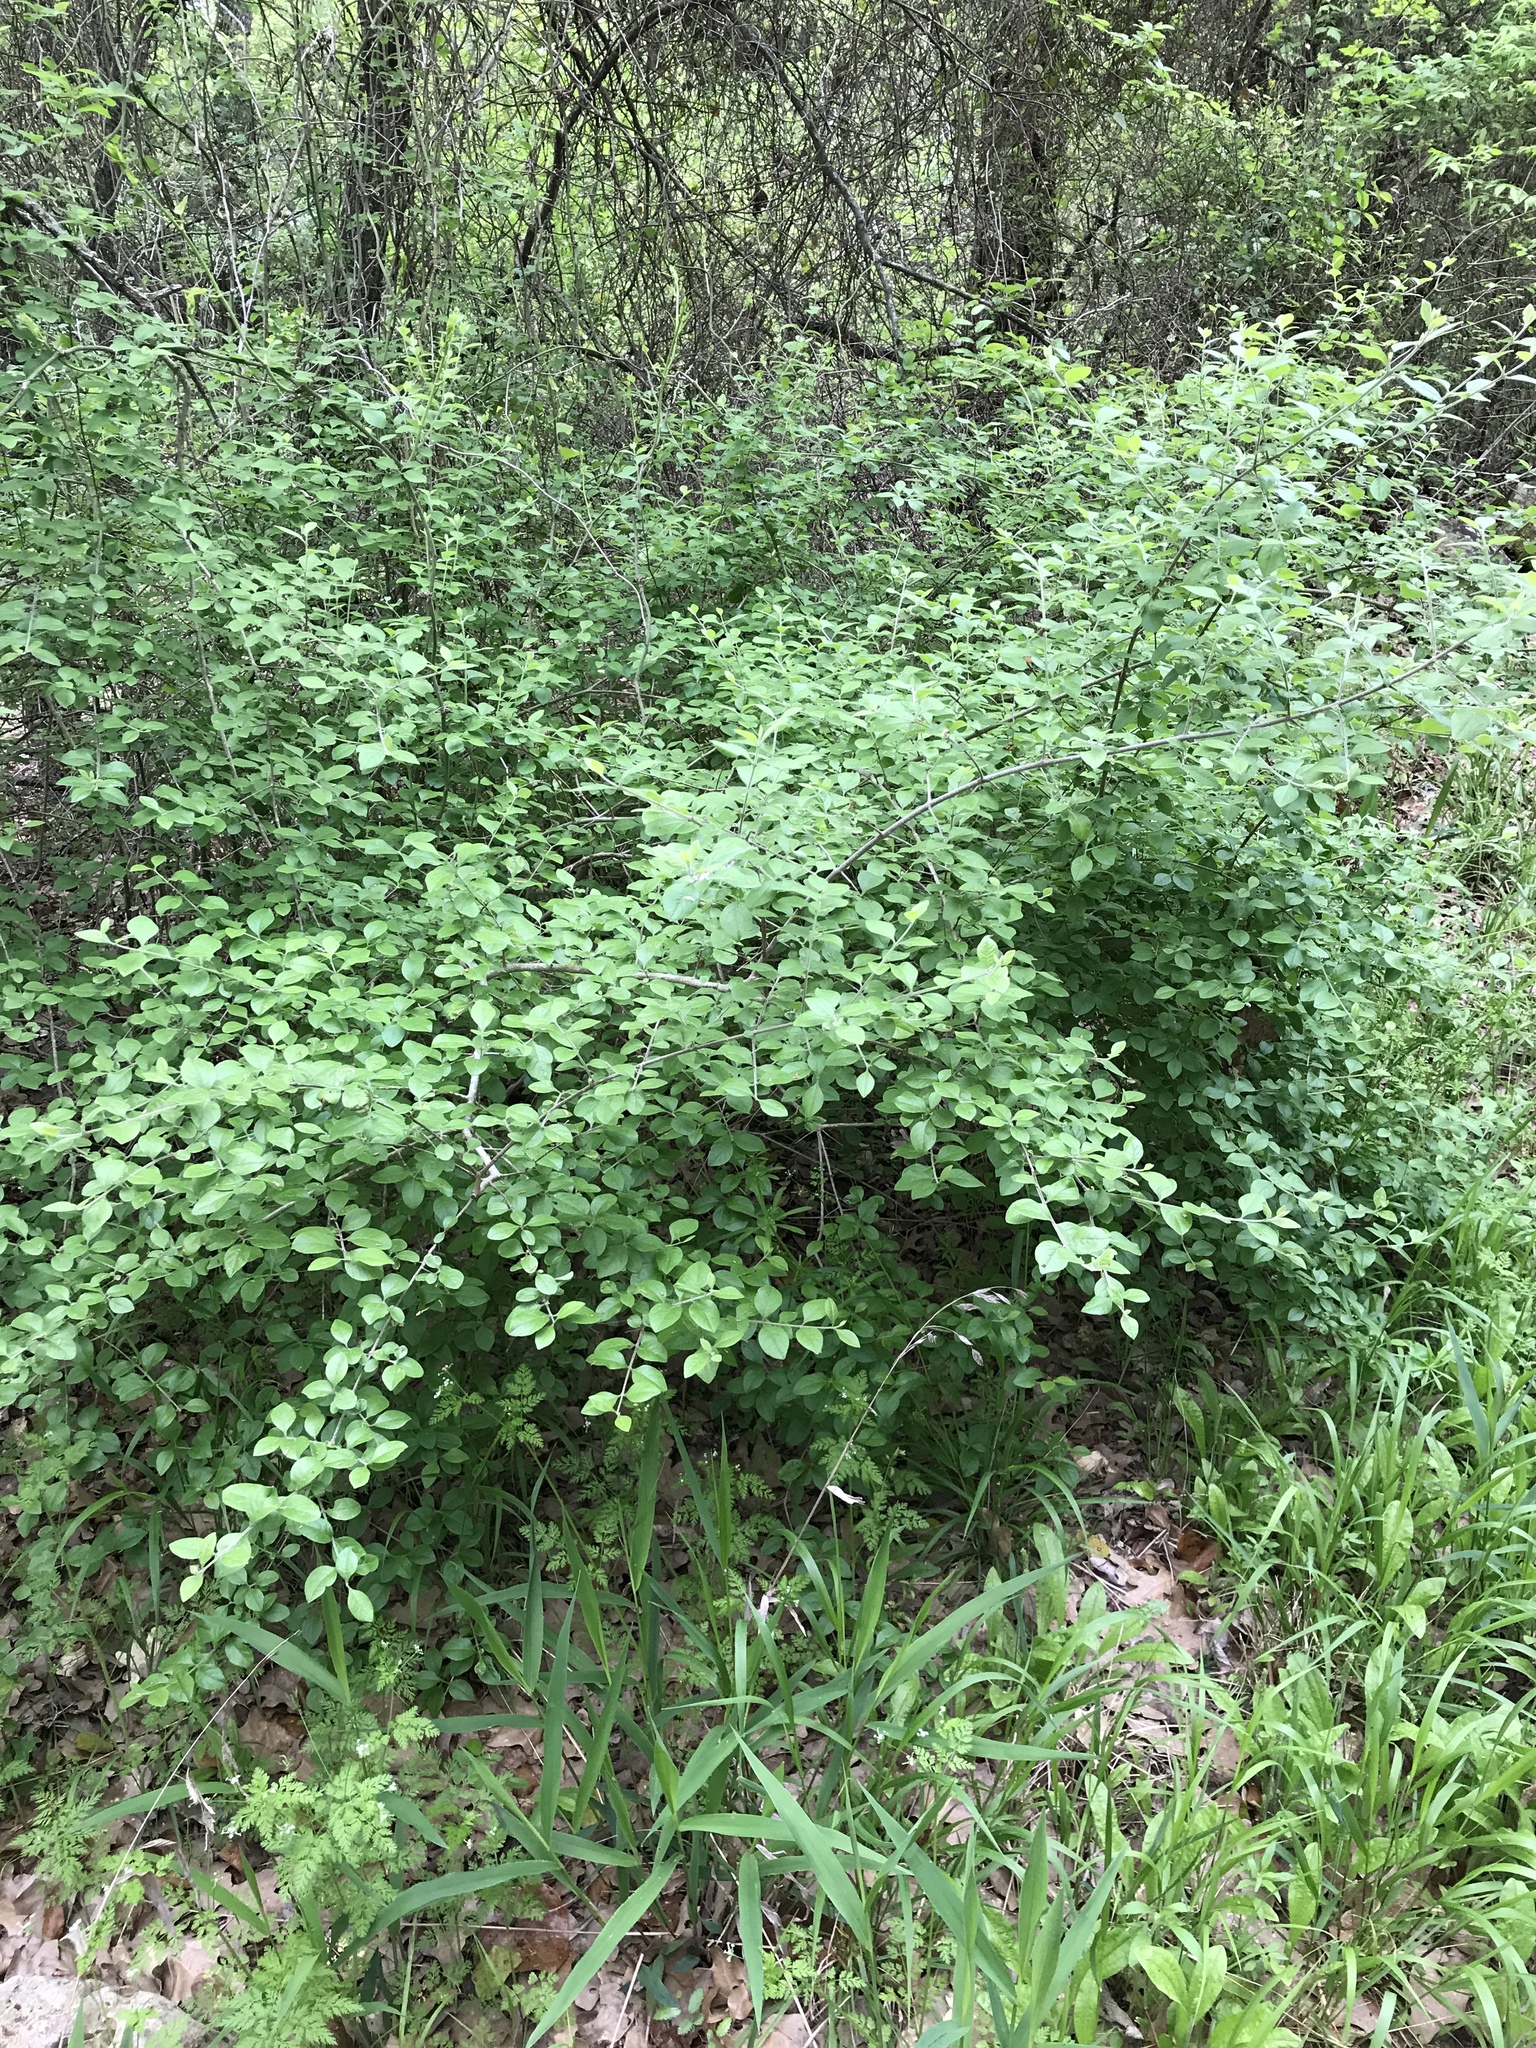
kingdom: Plantae
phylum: Tracheophyta
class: Magnoliopsida
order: Lamiales
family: Oleaceae
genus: Forestiera
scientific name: Forestiera pubescens
